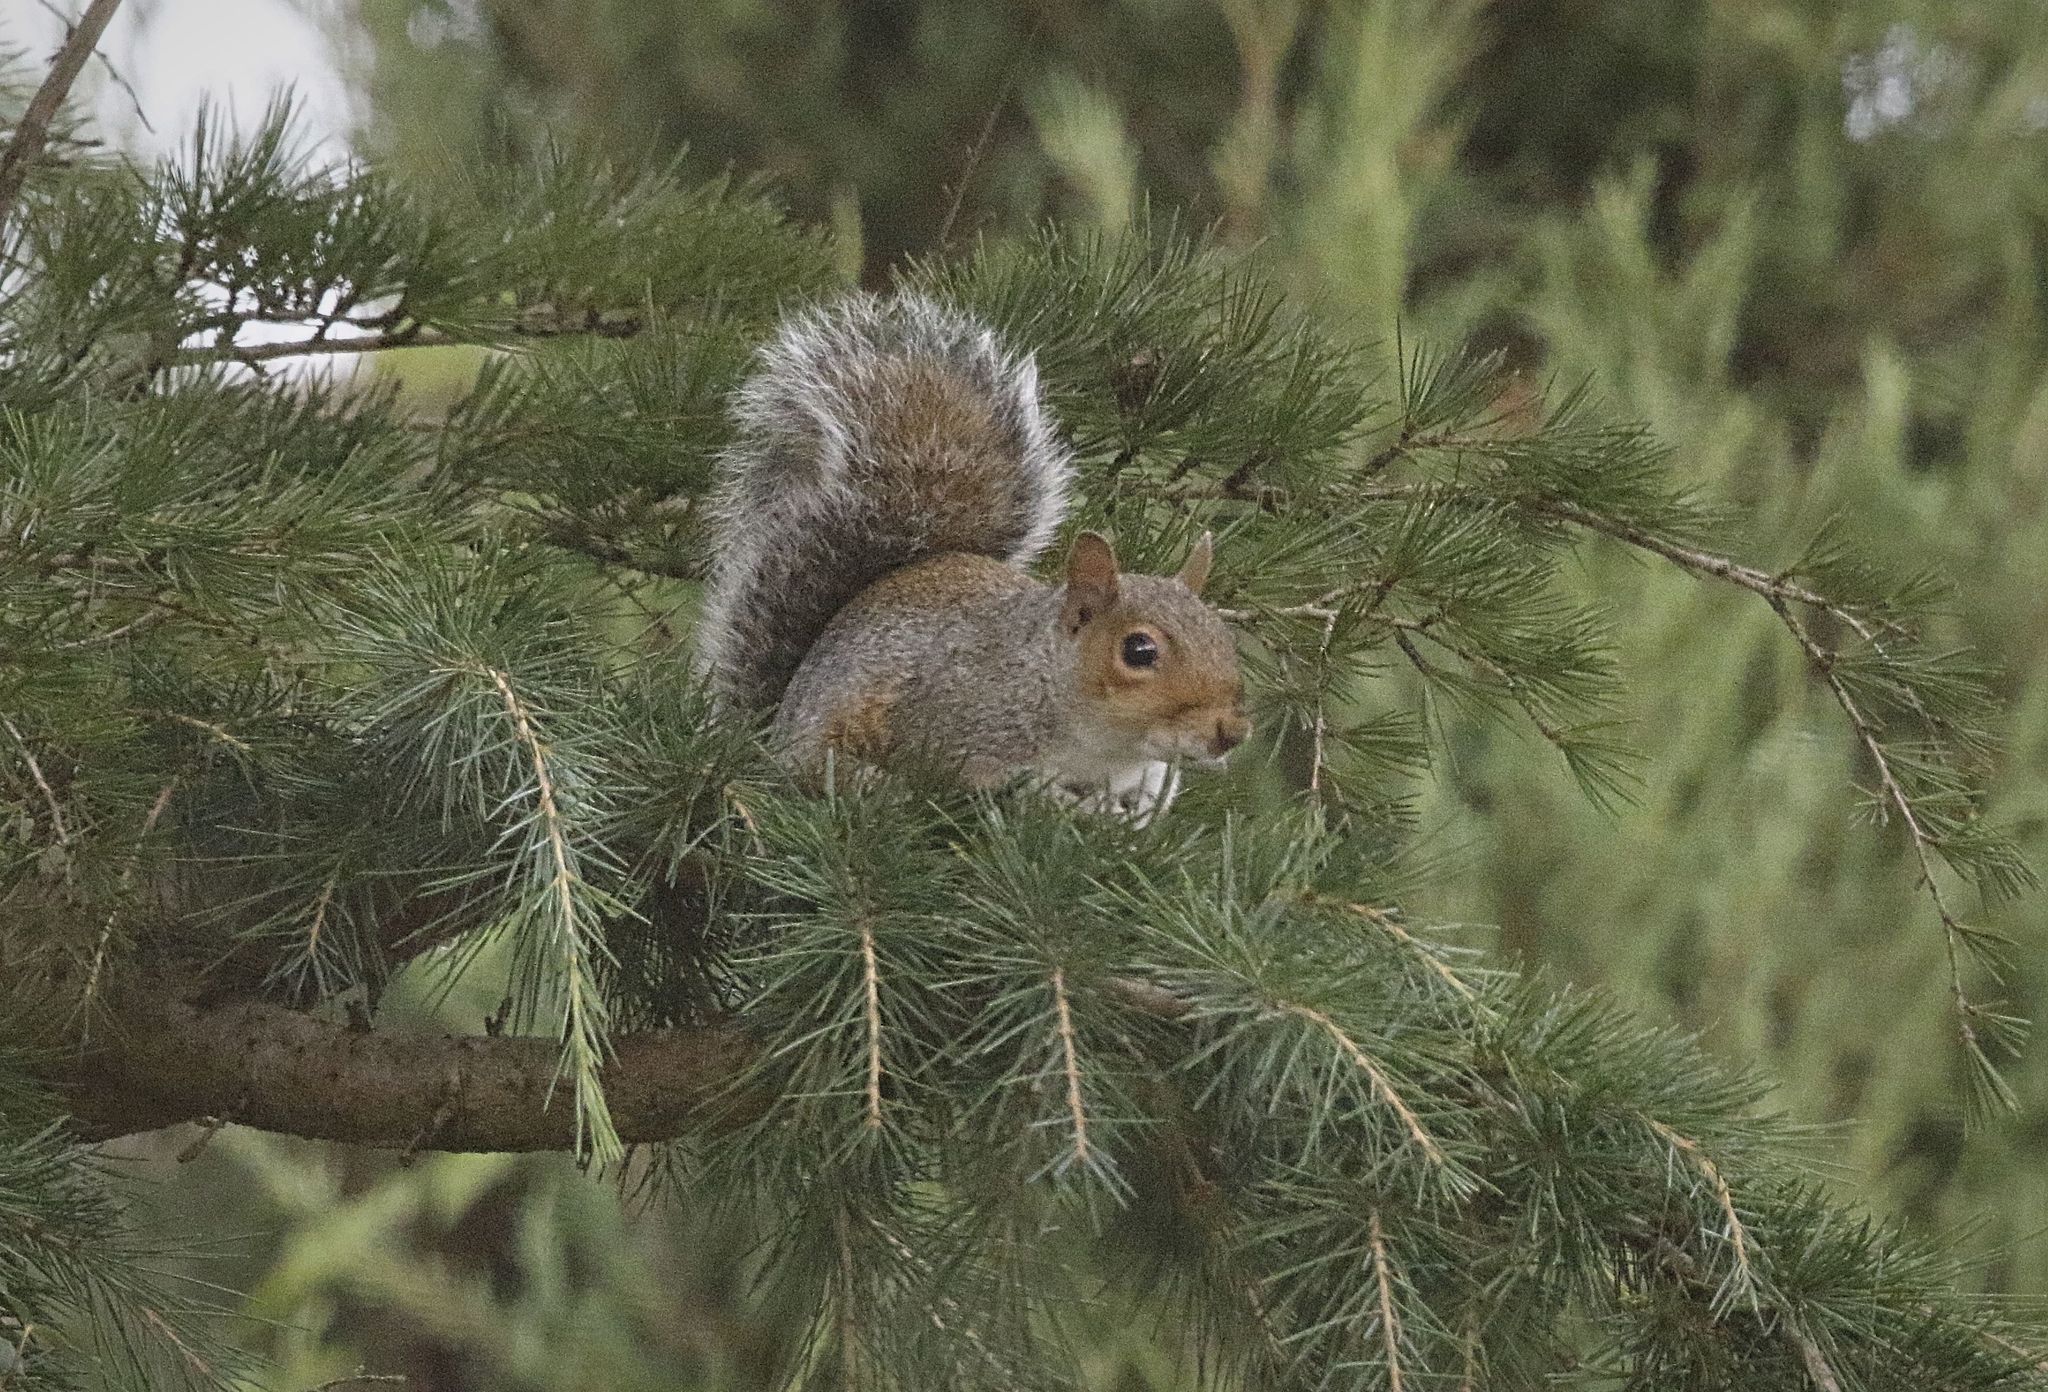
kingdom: Animalia
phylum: Chordata
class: Mammalia
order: Rodentia
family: Sciuridae
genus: Sciurus
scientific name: Sciurus carolinensis
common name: Eastern gray squirrel
